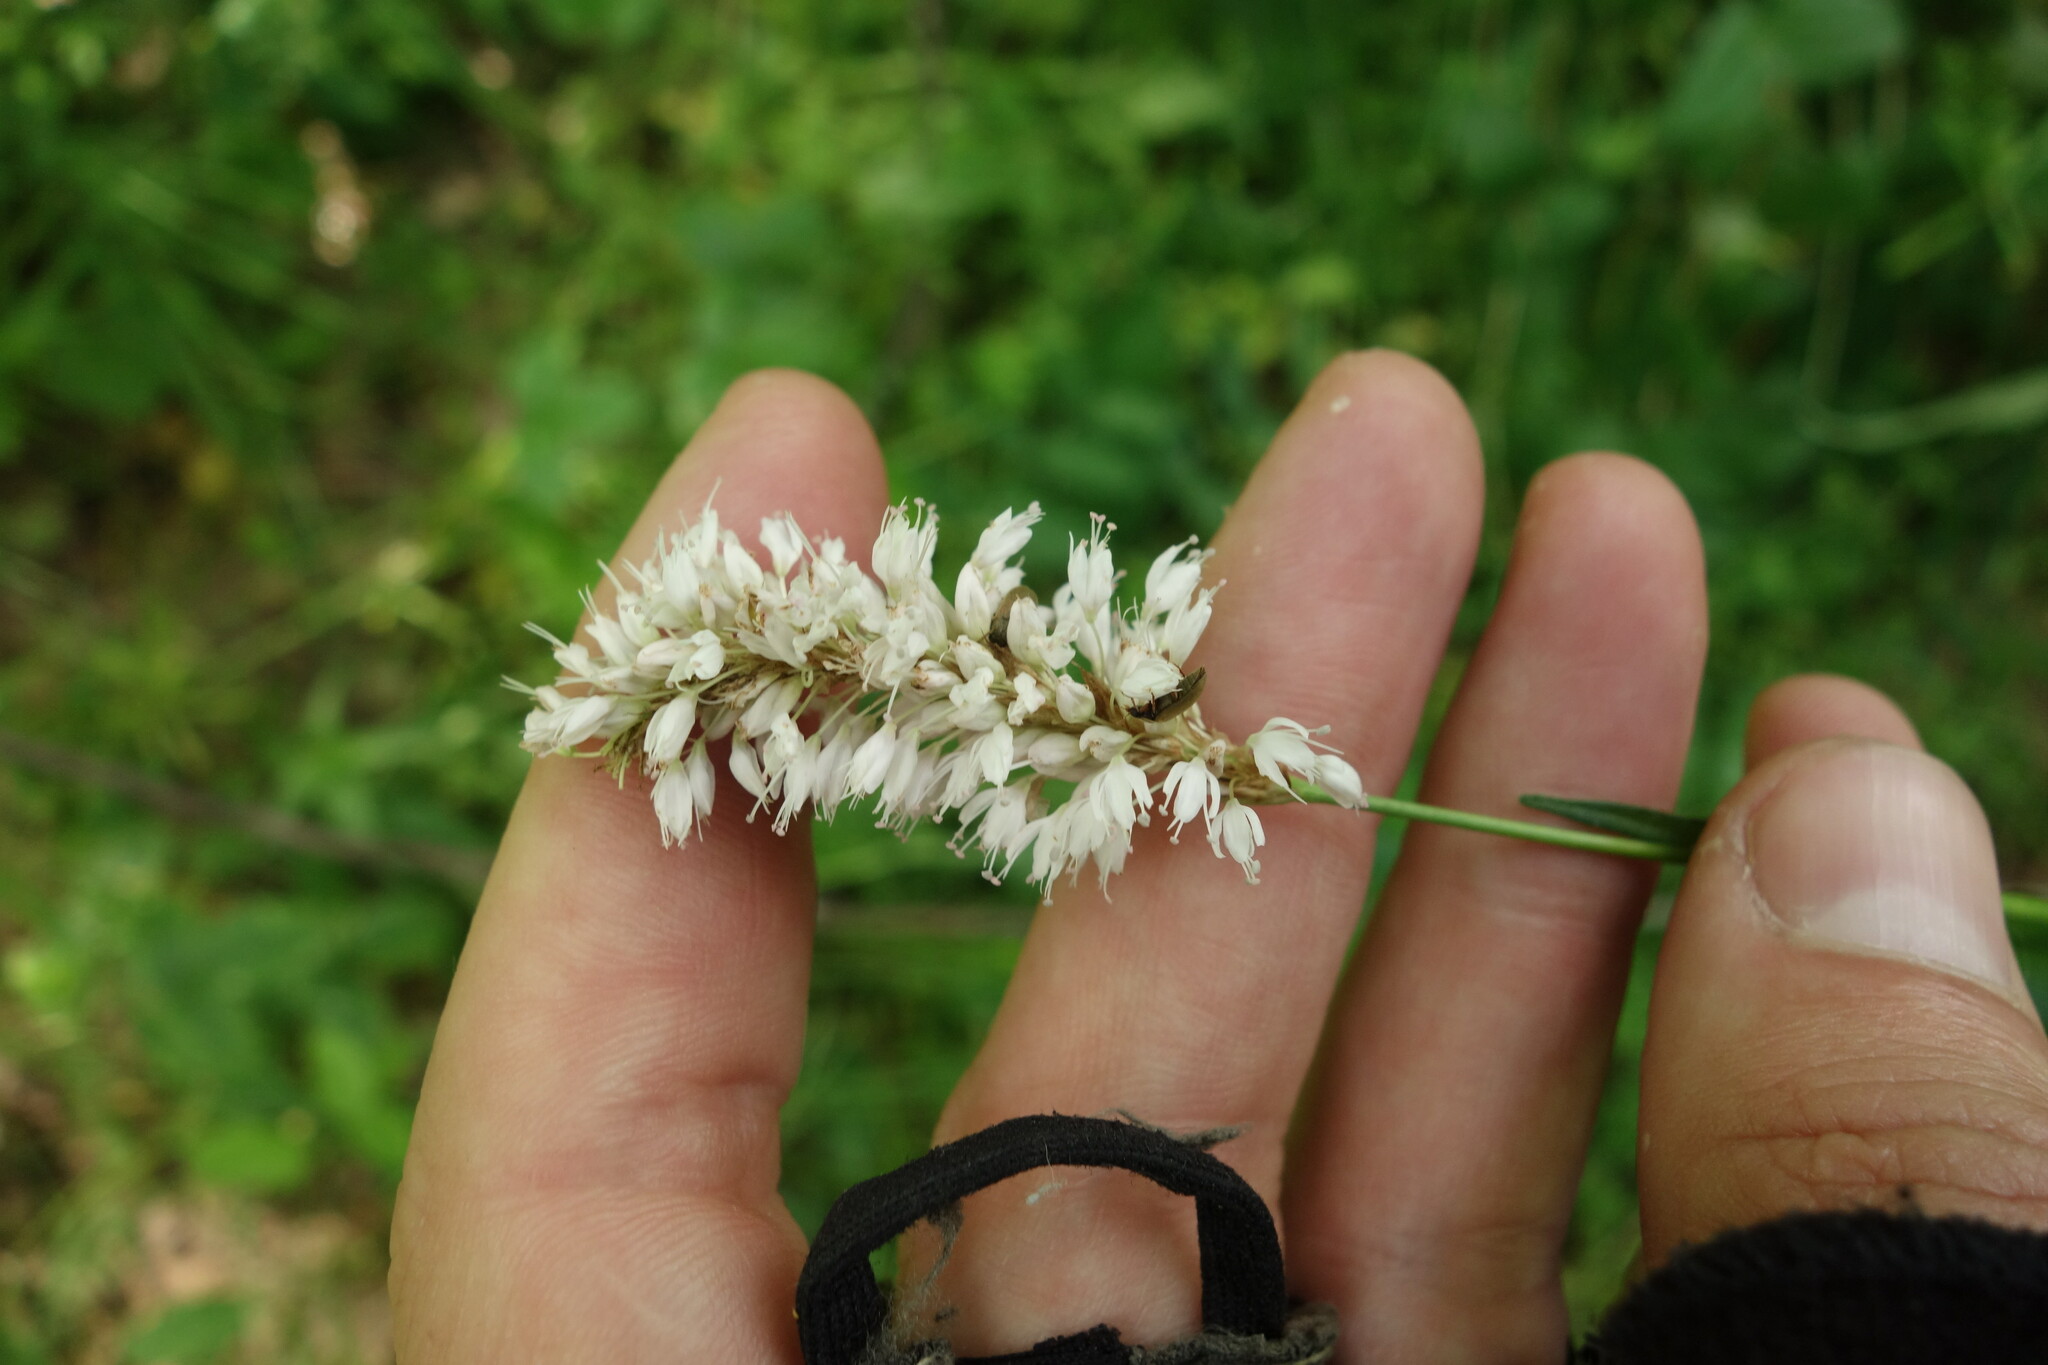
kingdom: Plantae
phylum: Tracheophyta
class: Magnoliopsida
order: Caryophyllales
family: Polygonaceae
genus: Bistorta
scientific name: Bistorta officinalis
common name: Common bistort
